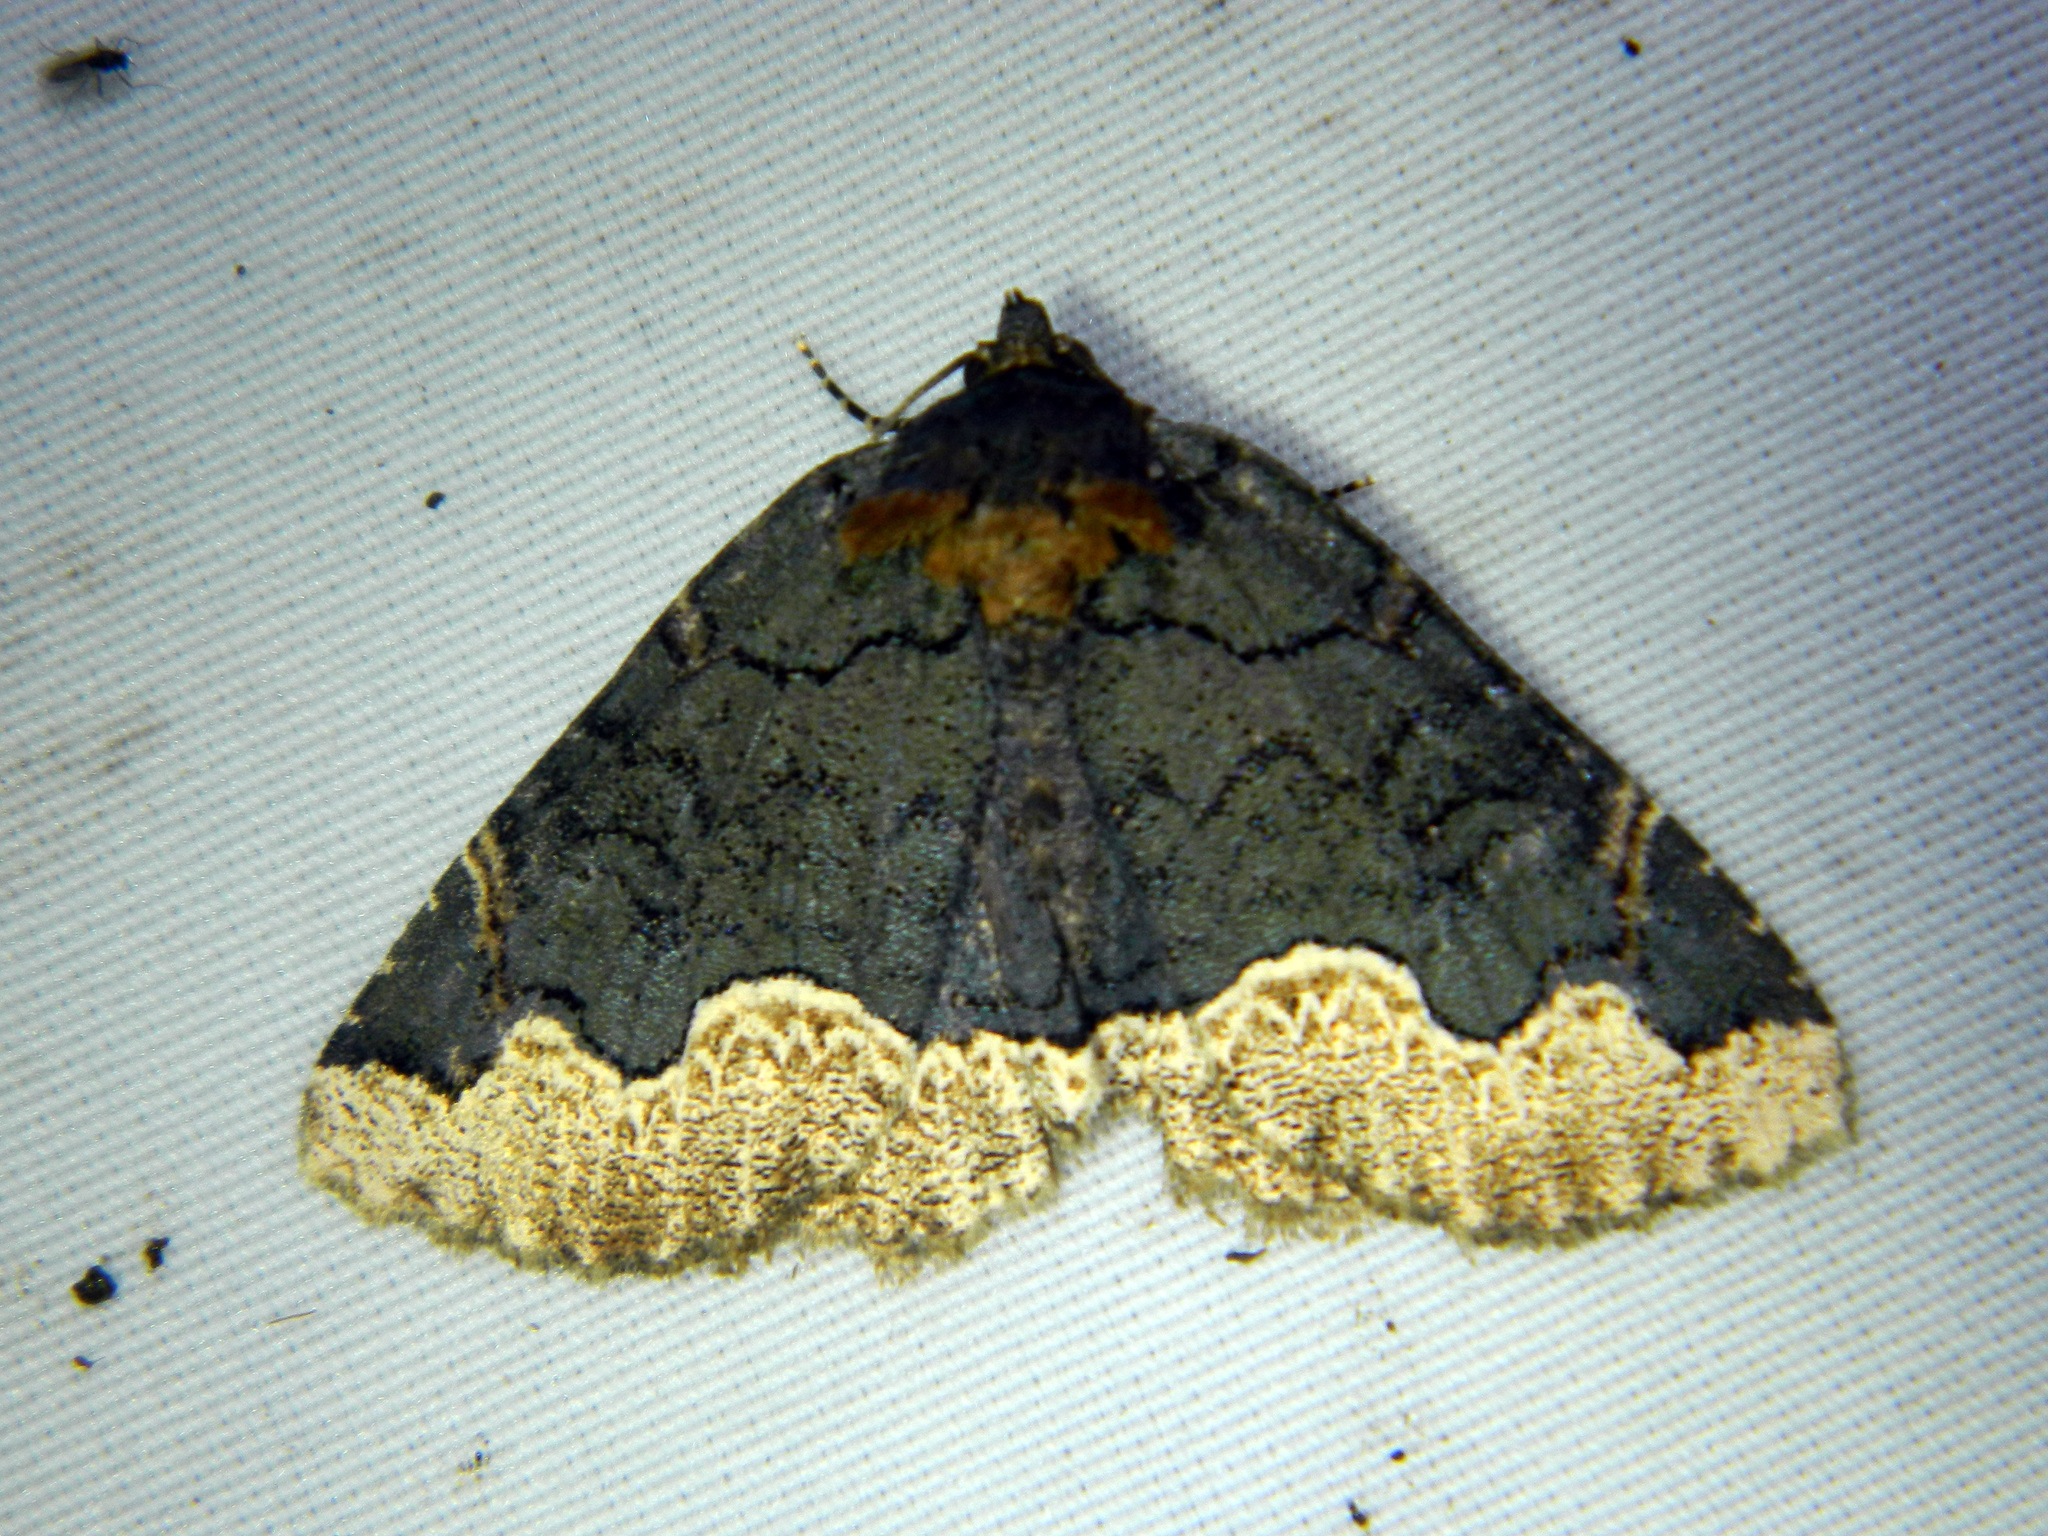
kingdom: Animalia
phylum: Arthropoda
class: Insecta
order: Lepidoptera
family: Erebidae
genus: Zale
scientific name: Zale horrida
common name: Horrid zale moth
